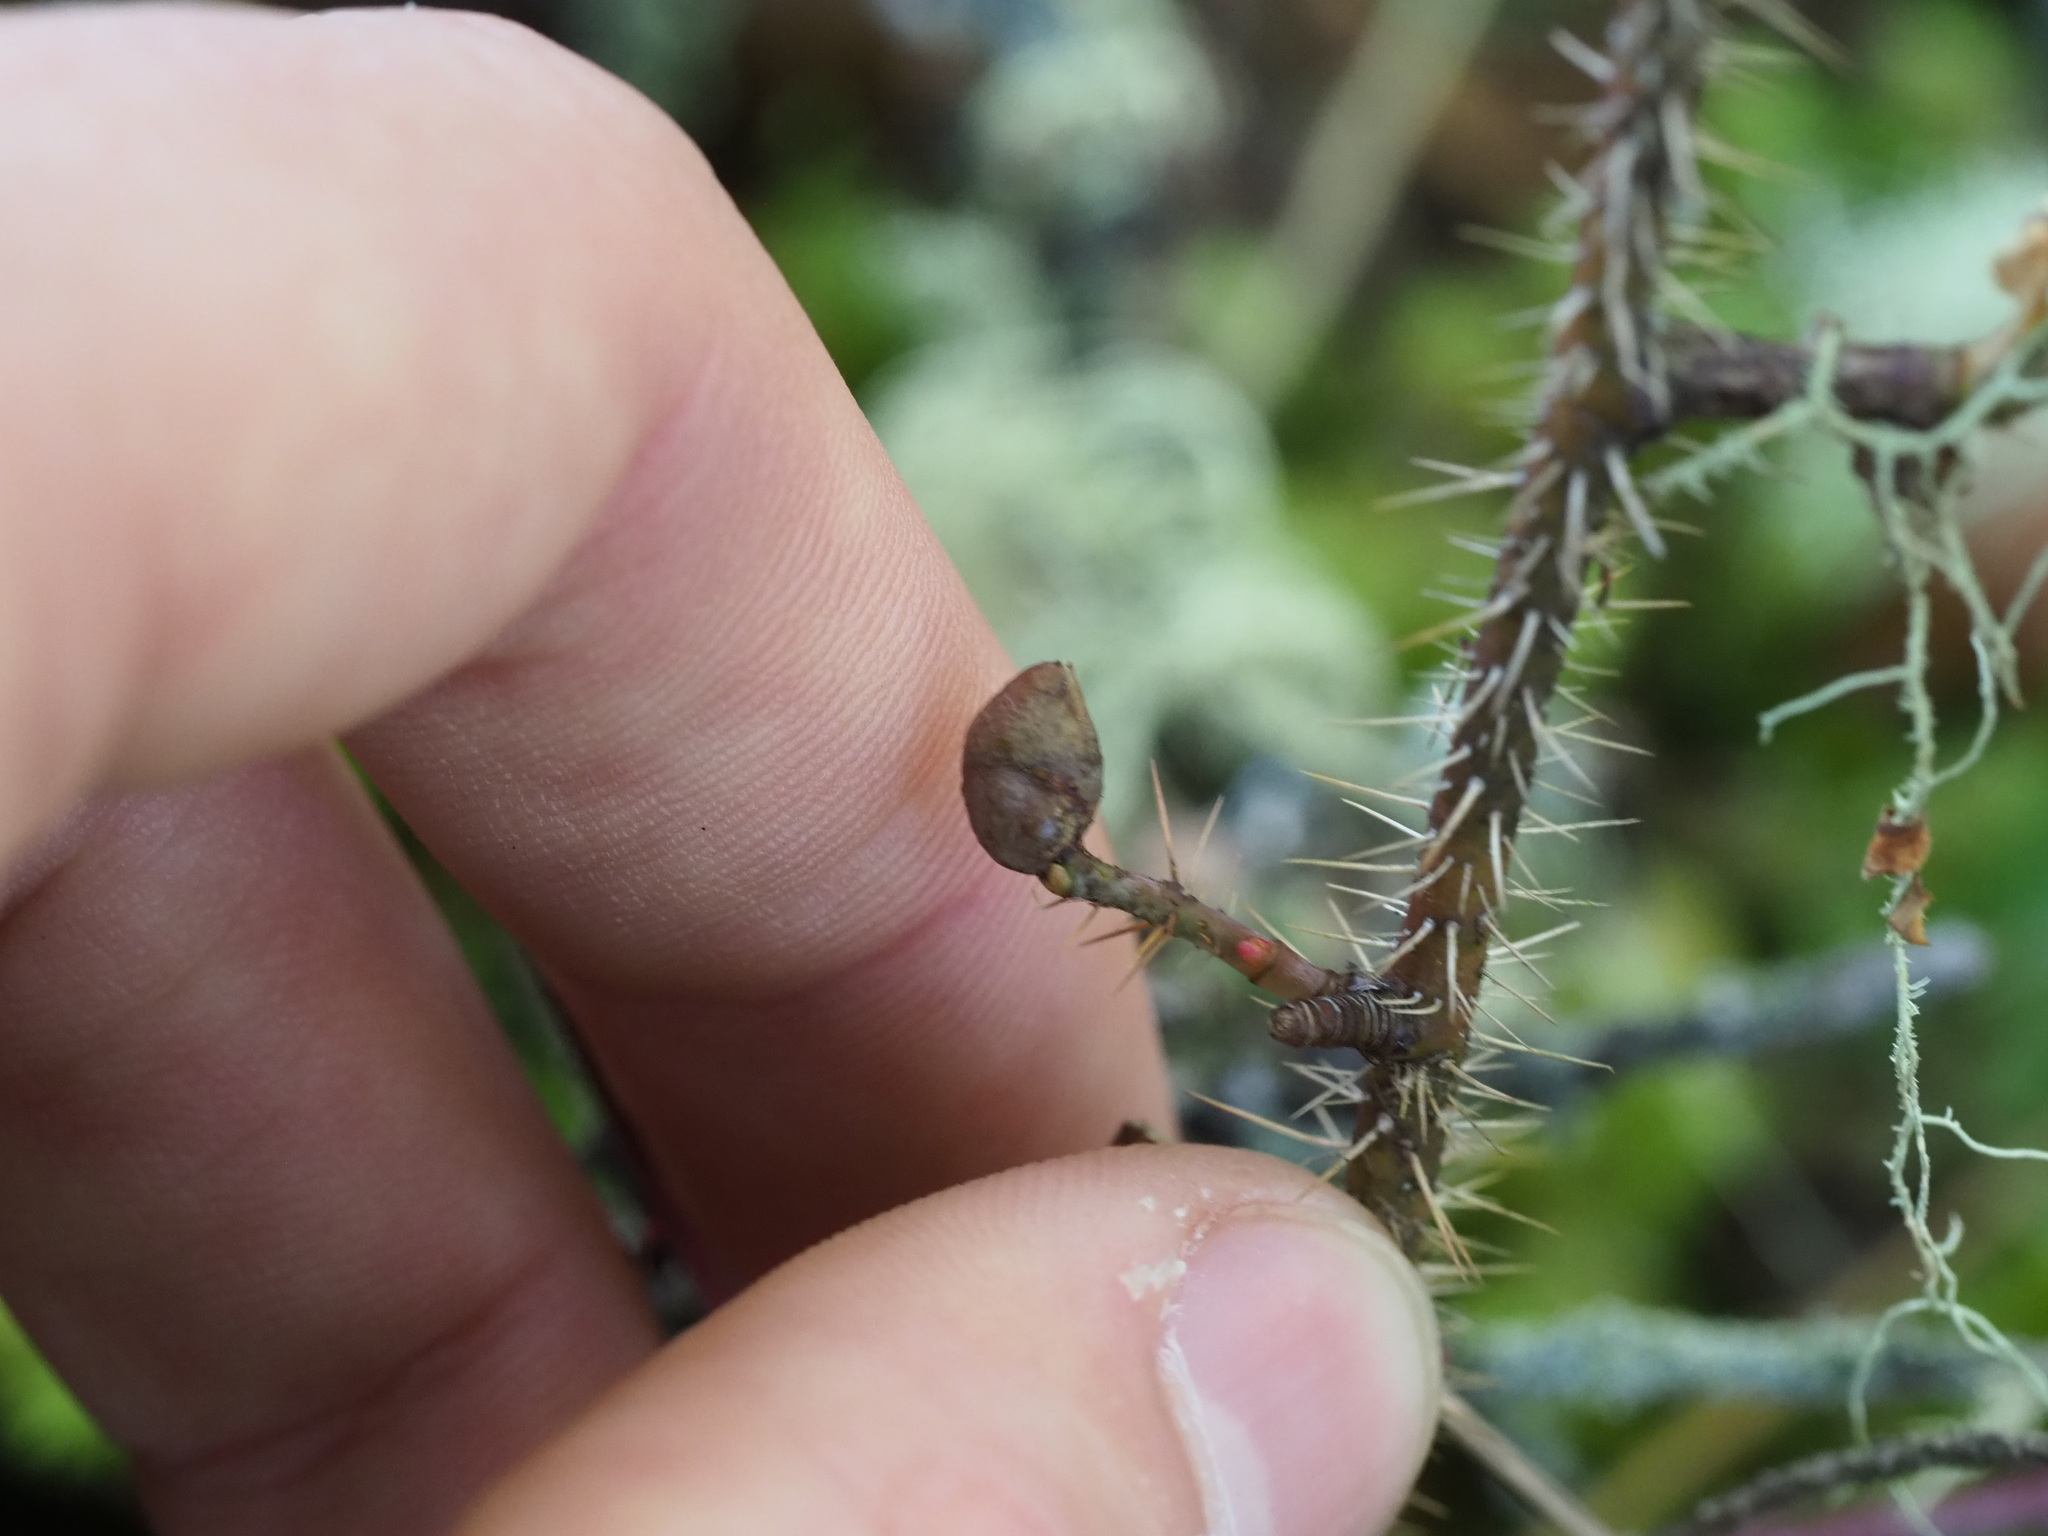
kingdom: Animalia
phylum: Arthropoda
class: Insecta
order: Hymenoptera
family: Cynipidae
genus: Diplolepis
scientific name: Diplolepis
